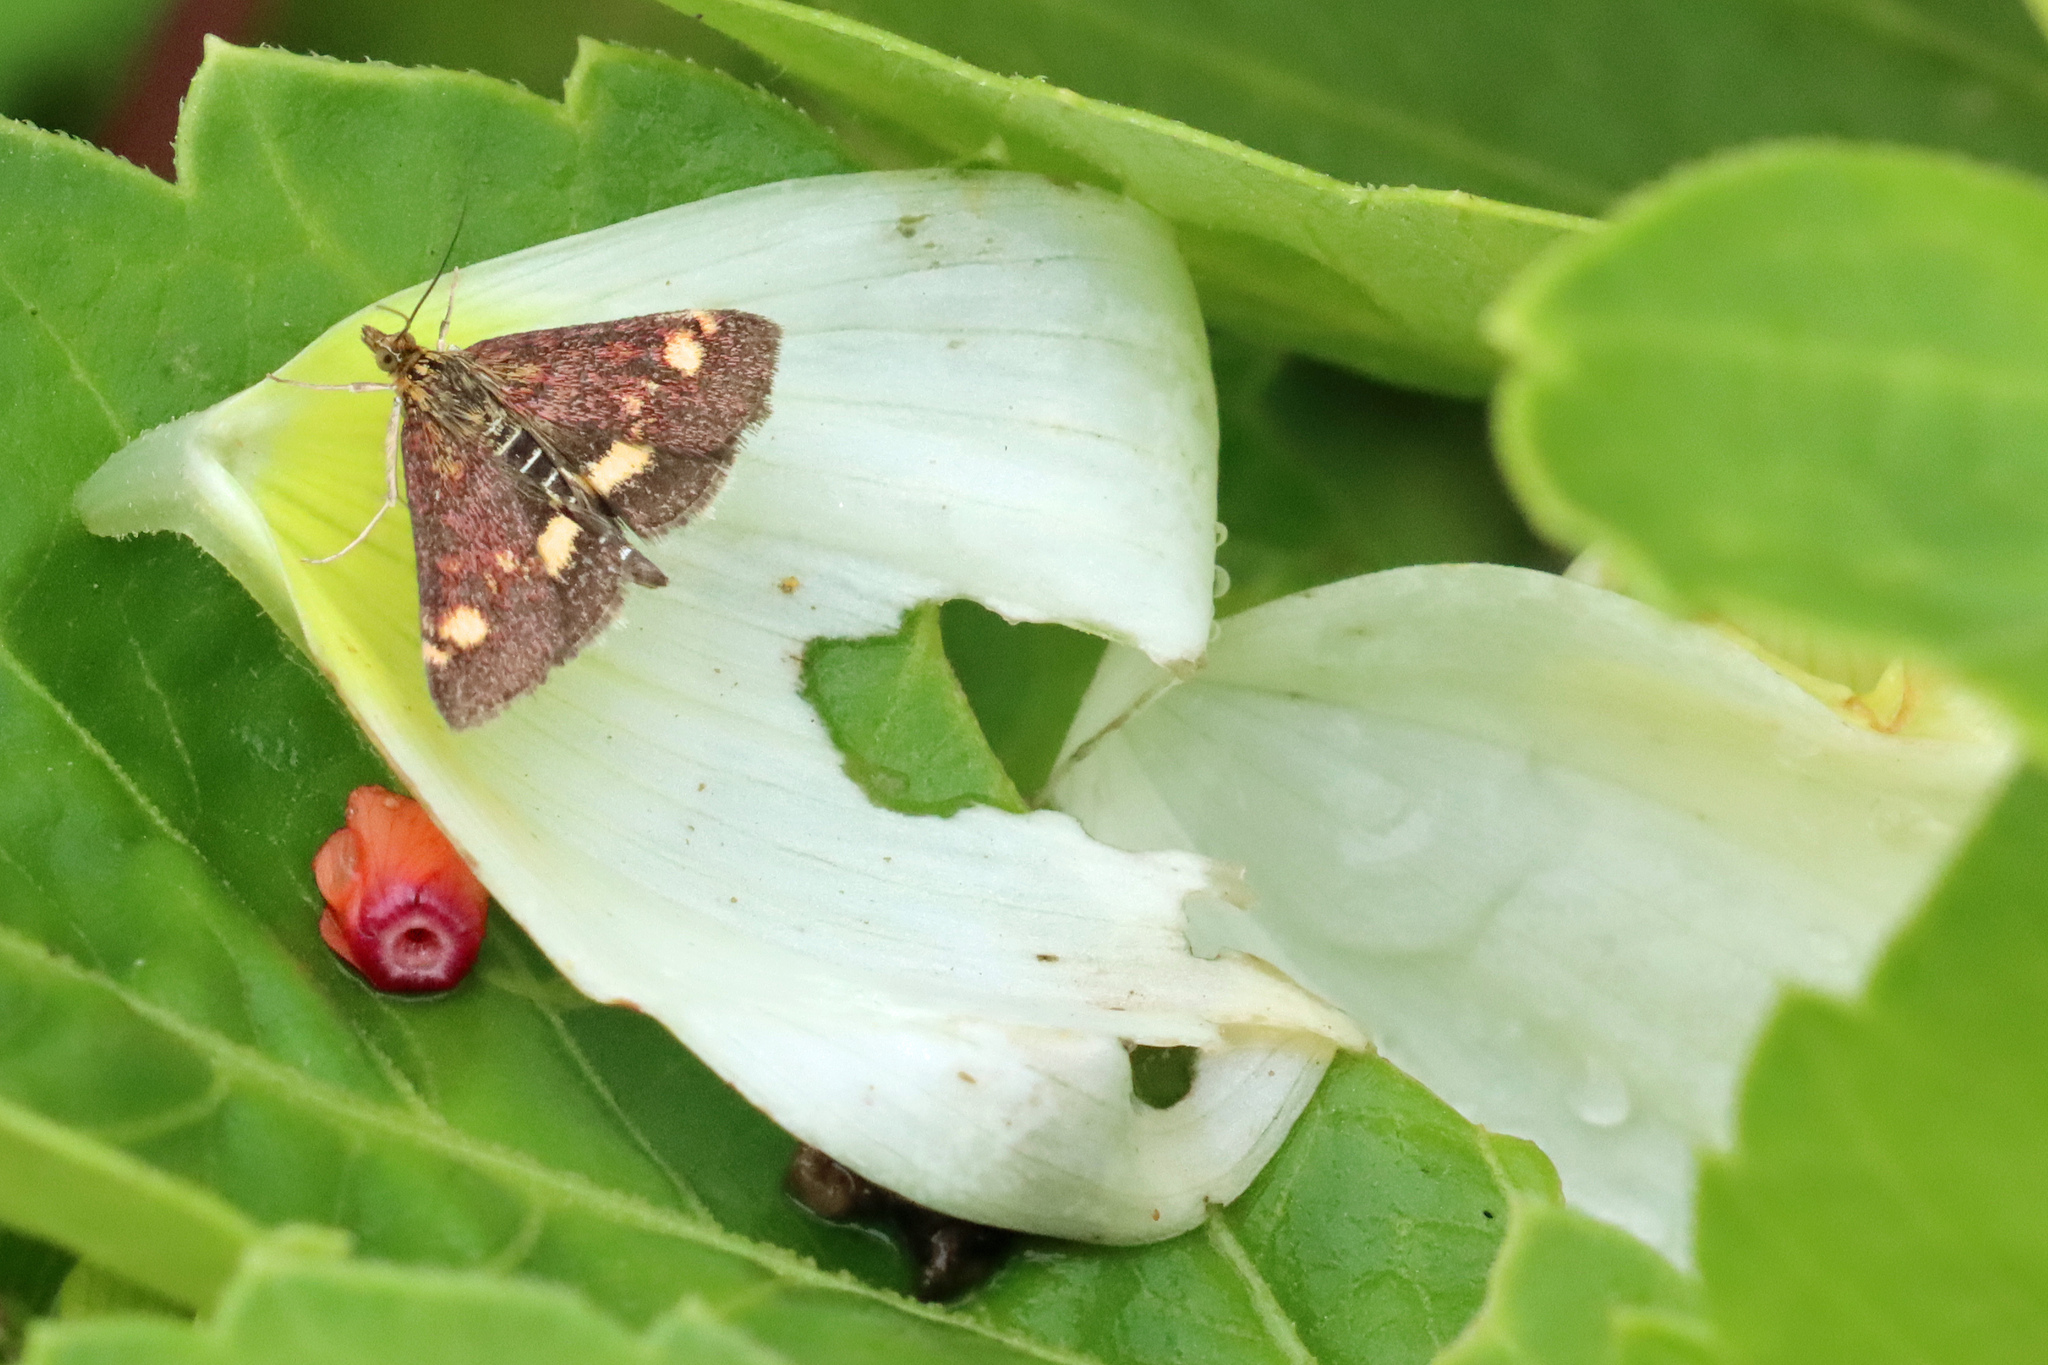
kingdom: Animalia
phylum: Arthropoda
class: Insecta
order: Lepidoptera
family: Crambidae
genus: Pyrausta
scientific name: Pyrausta aurata
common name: Small purple & gold
